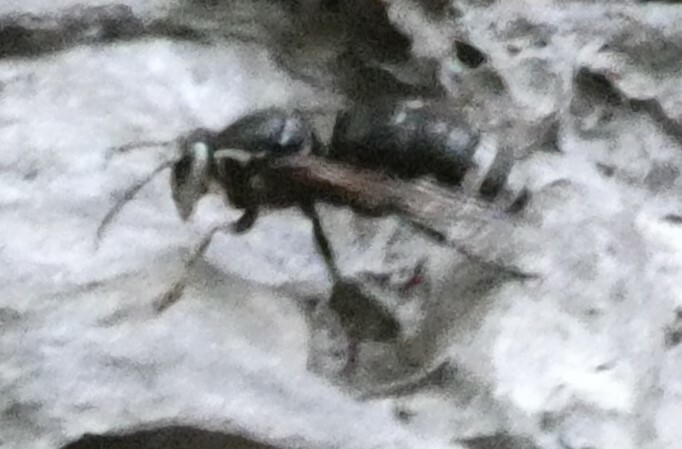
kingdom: Animalia
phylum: Arthropoda
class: Insecta
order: Hymenoptera
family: Vespidae
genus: Dolichovespula
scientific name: Dolichovespula maculata
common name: Bald-faced hornet
